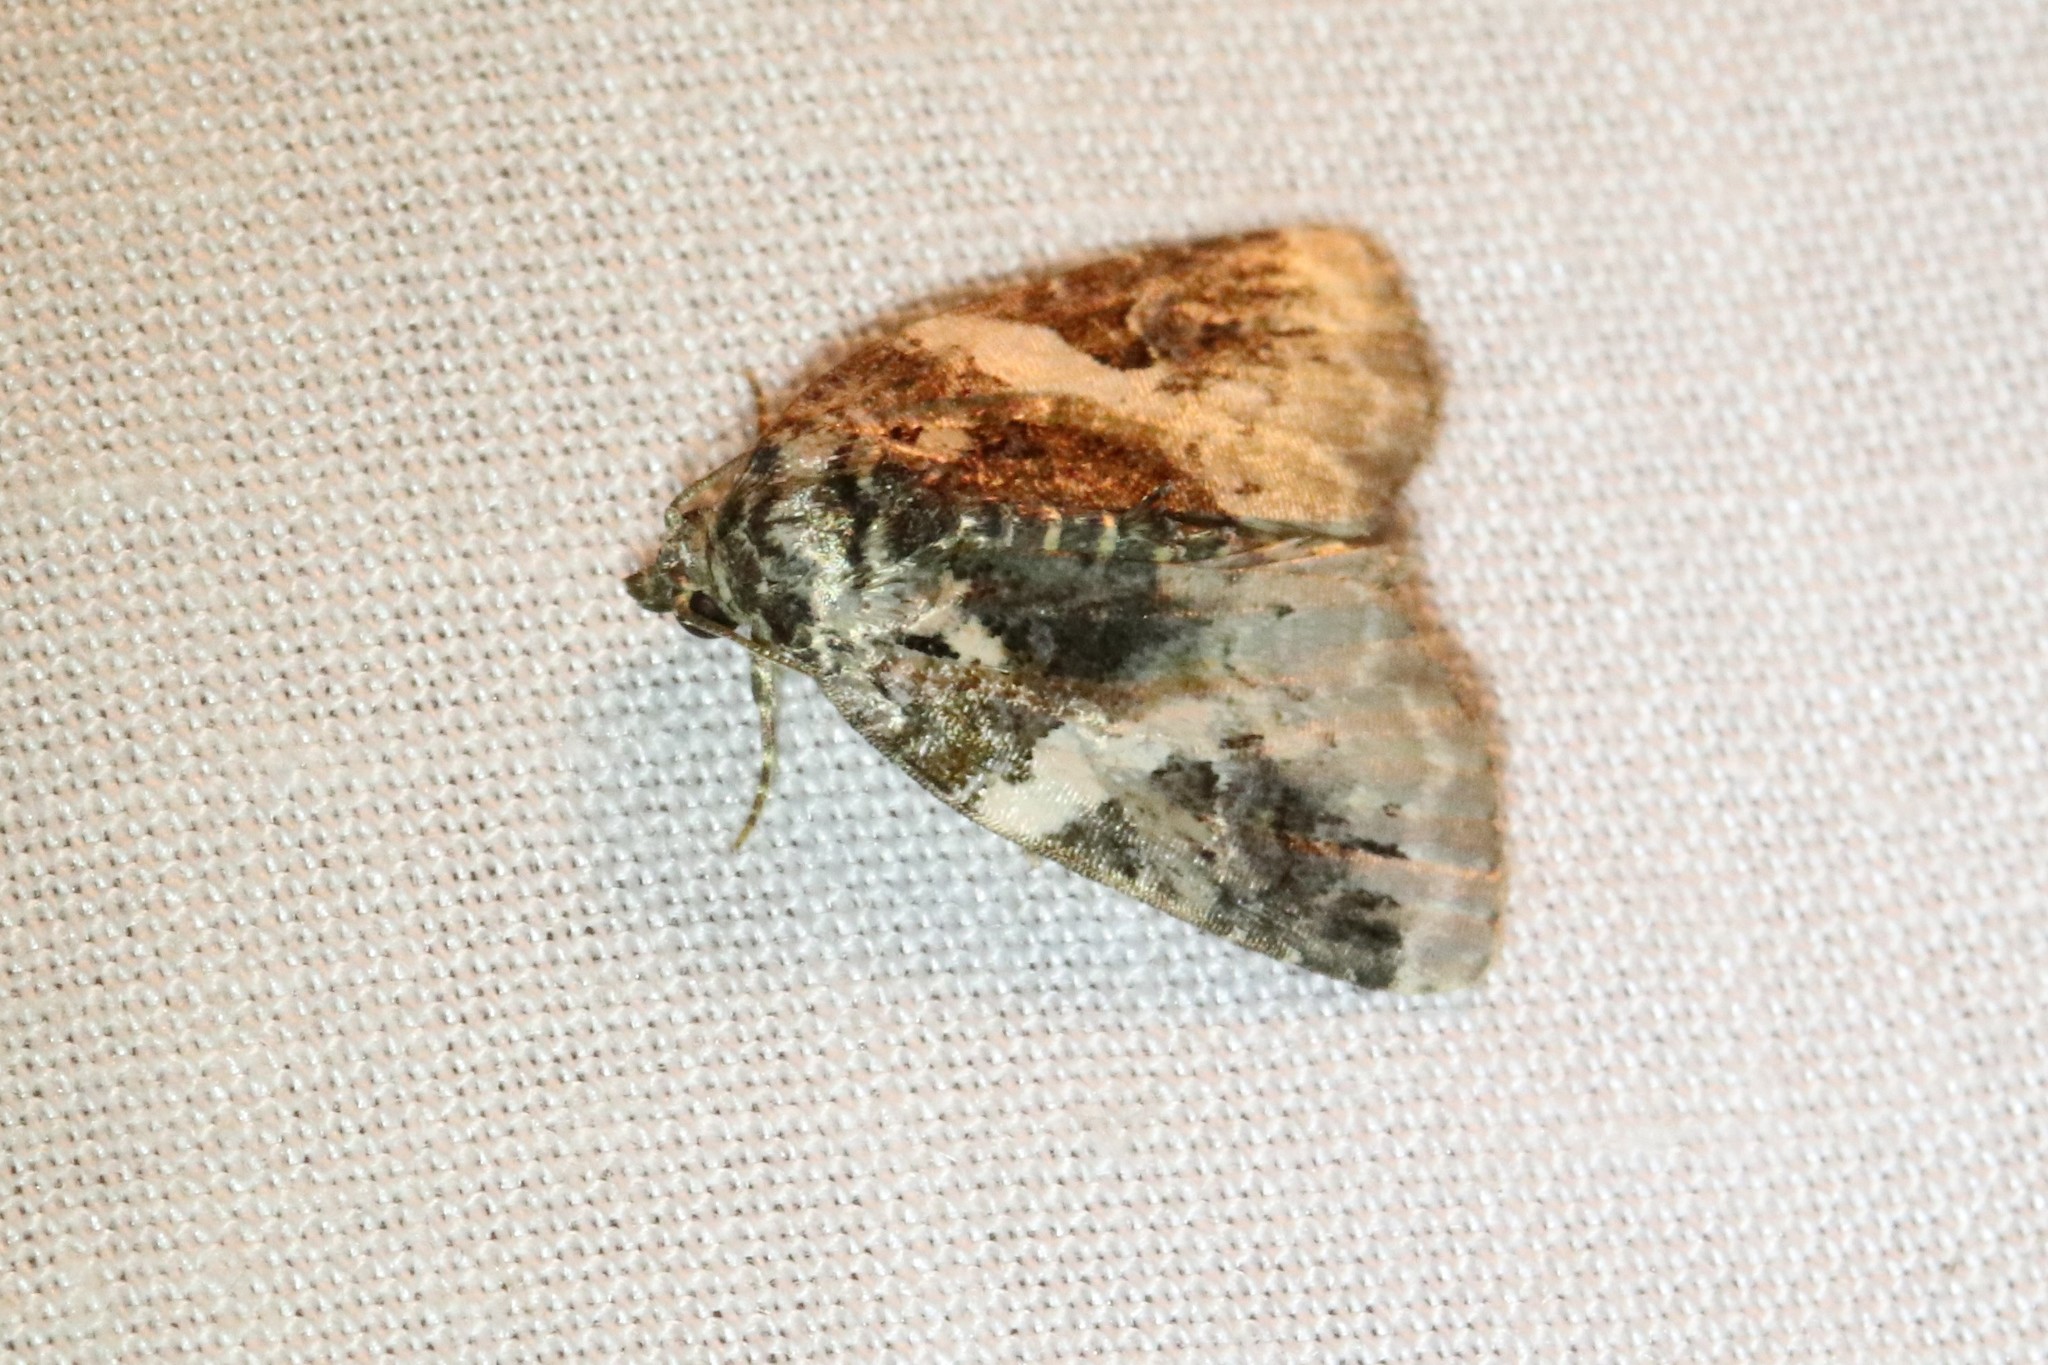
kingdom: Animalia
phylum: Arthropoda
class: Insecta
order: Lepidoptera
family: Noctuidae
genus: Pseudeustrotia
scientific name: Pseudeustrotia carneola
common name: Pink-barred lithacodia moth
